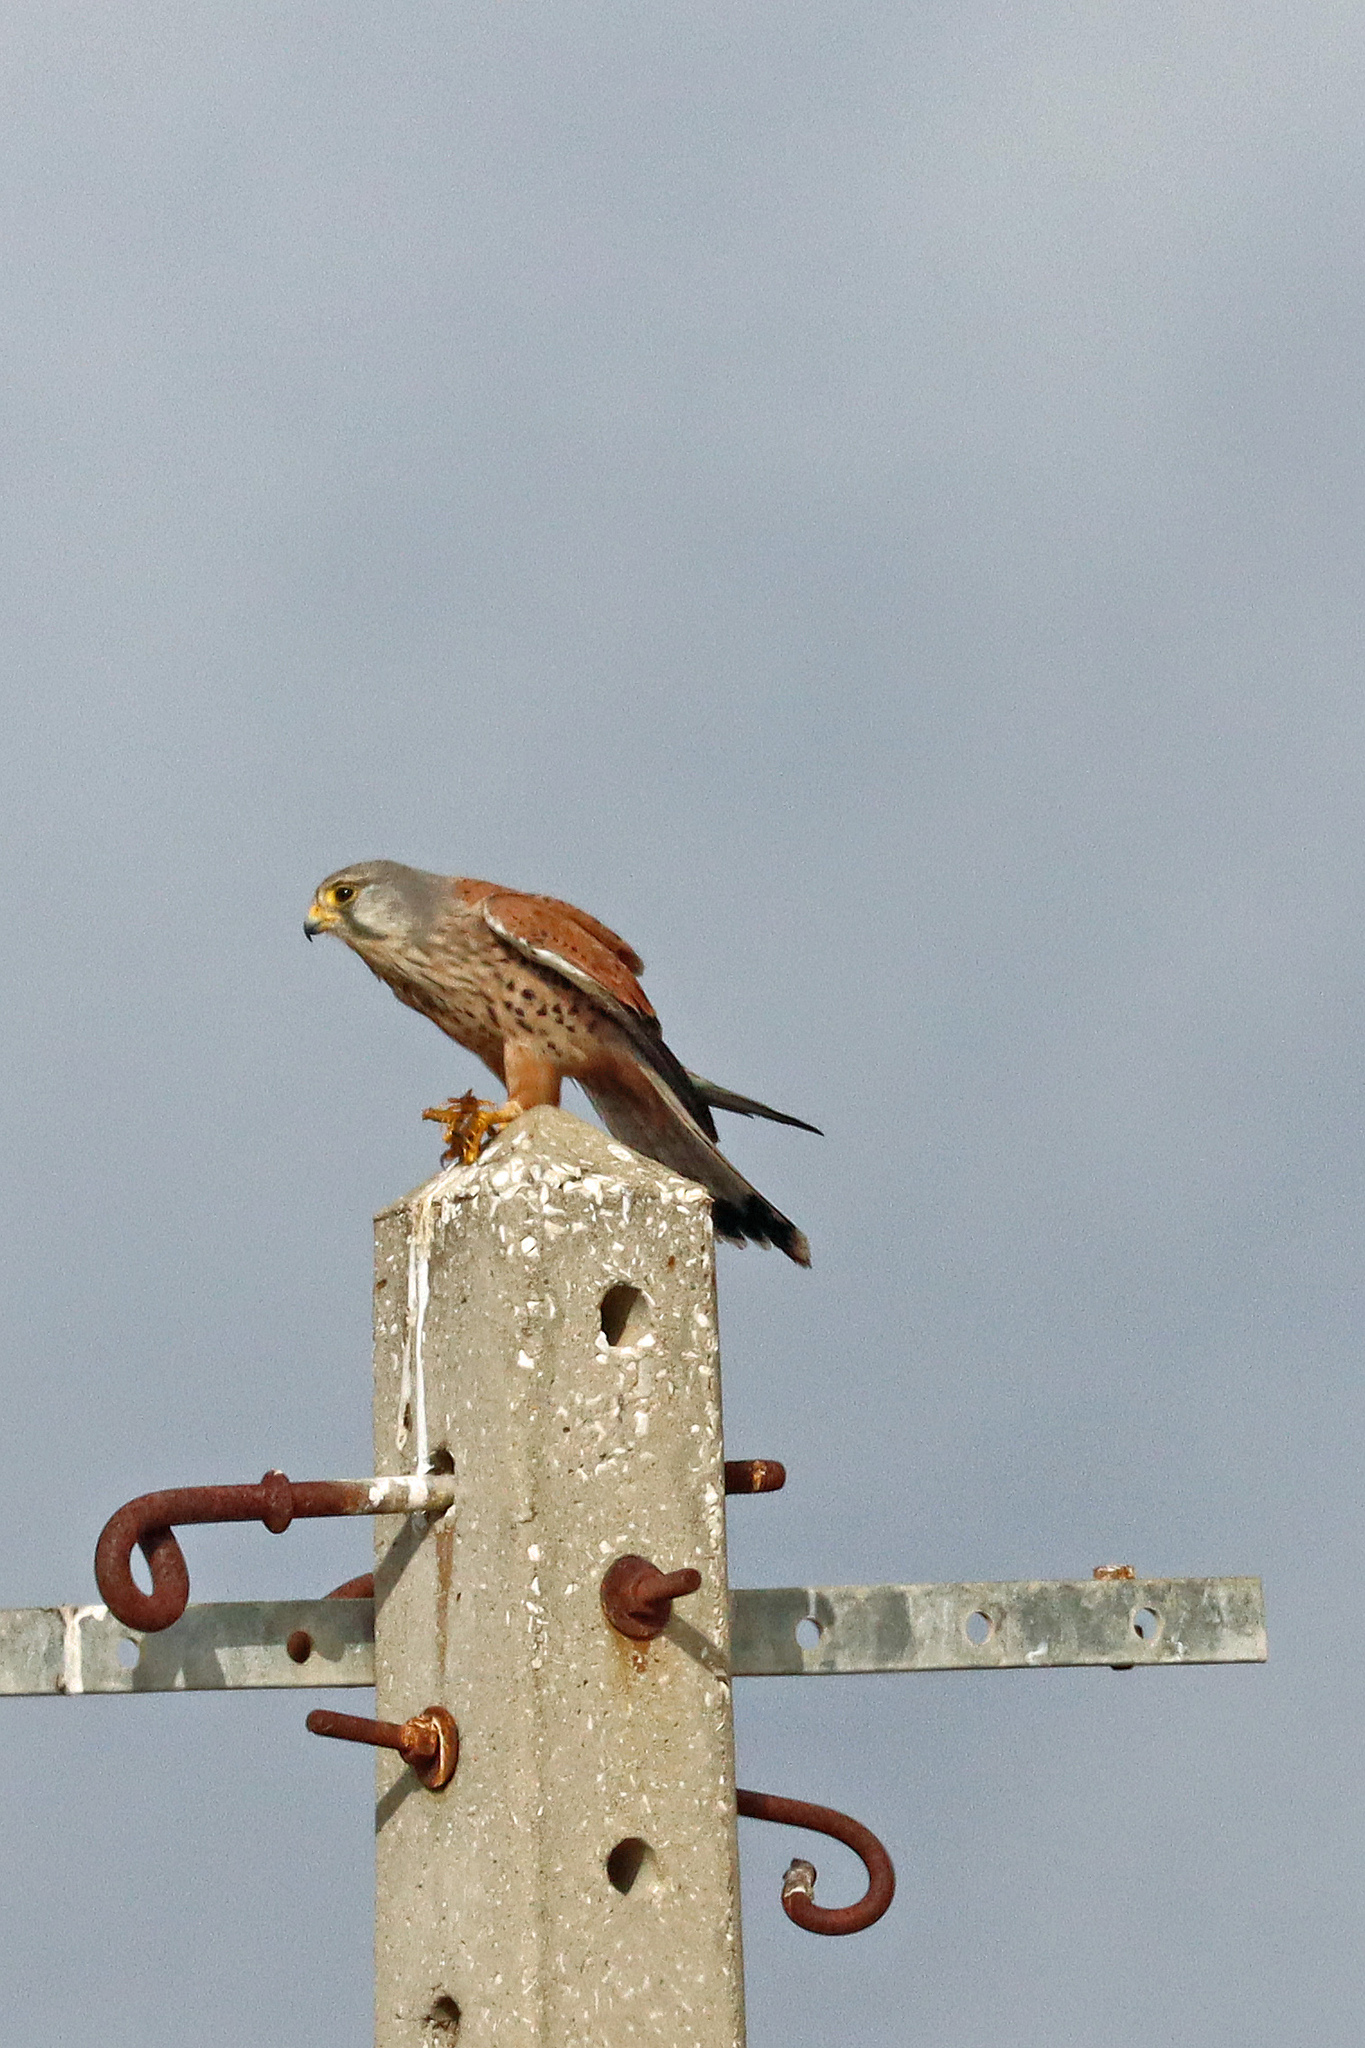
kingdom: Animalia
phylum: Chordata
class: Aves
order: Falconiformes
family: Falconidae
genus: Falco
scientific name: Falco tinnunculus
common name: Common kestrel
